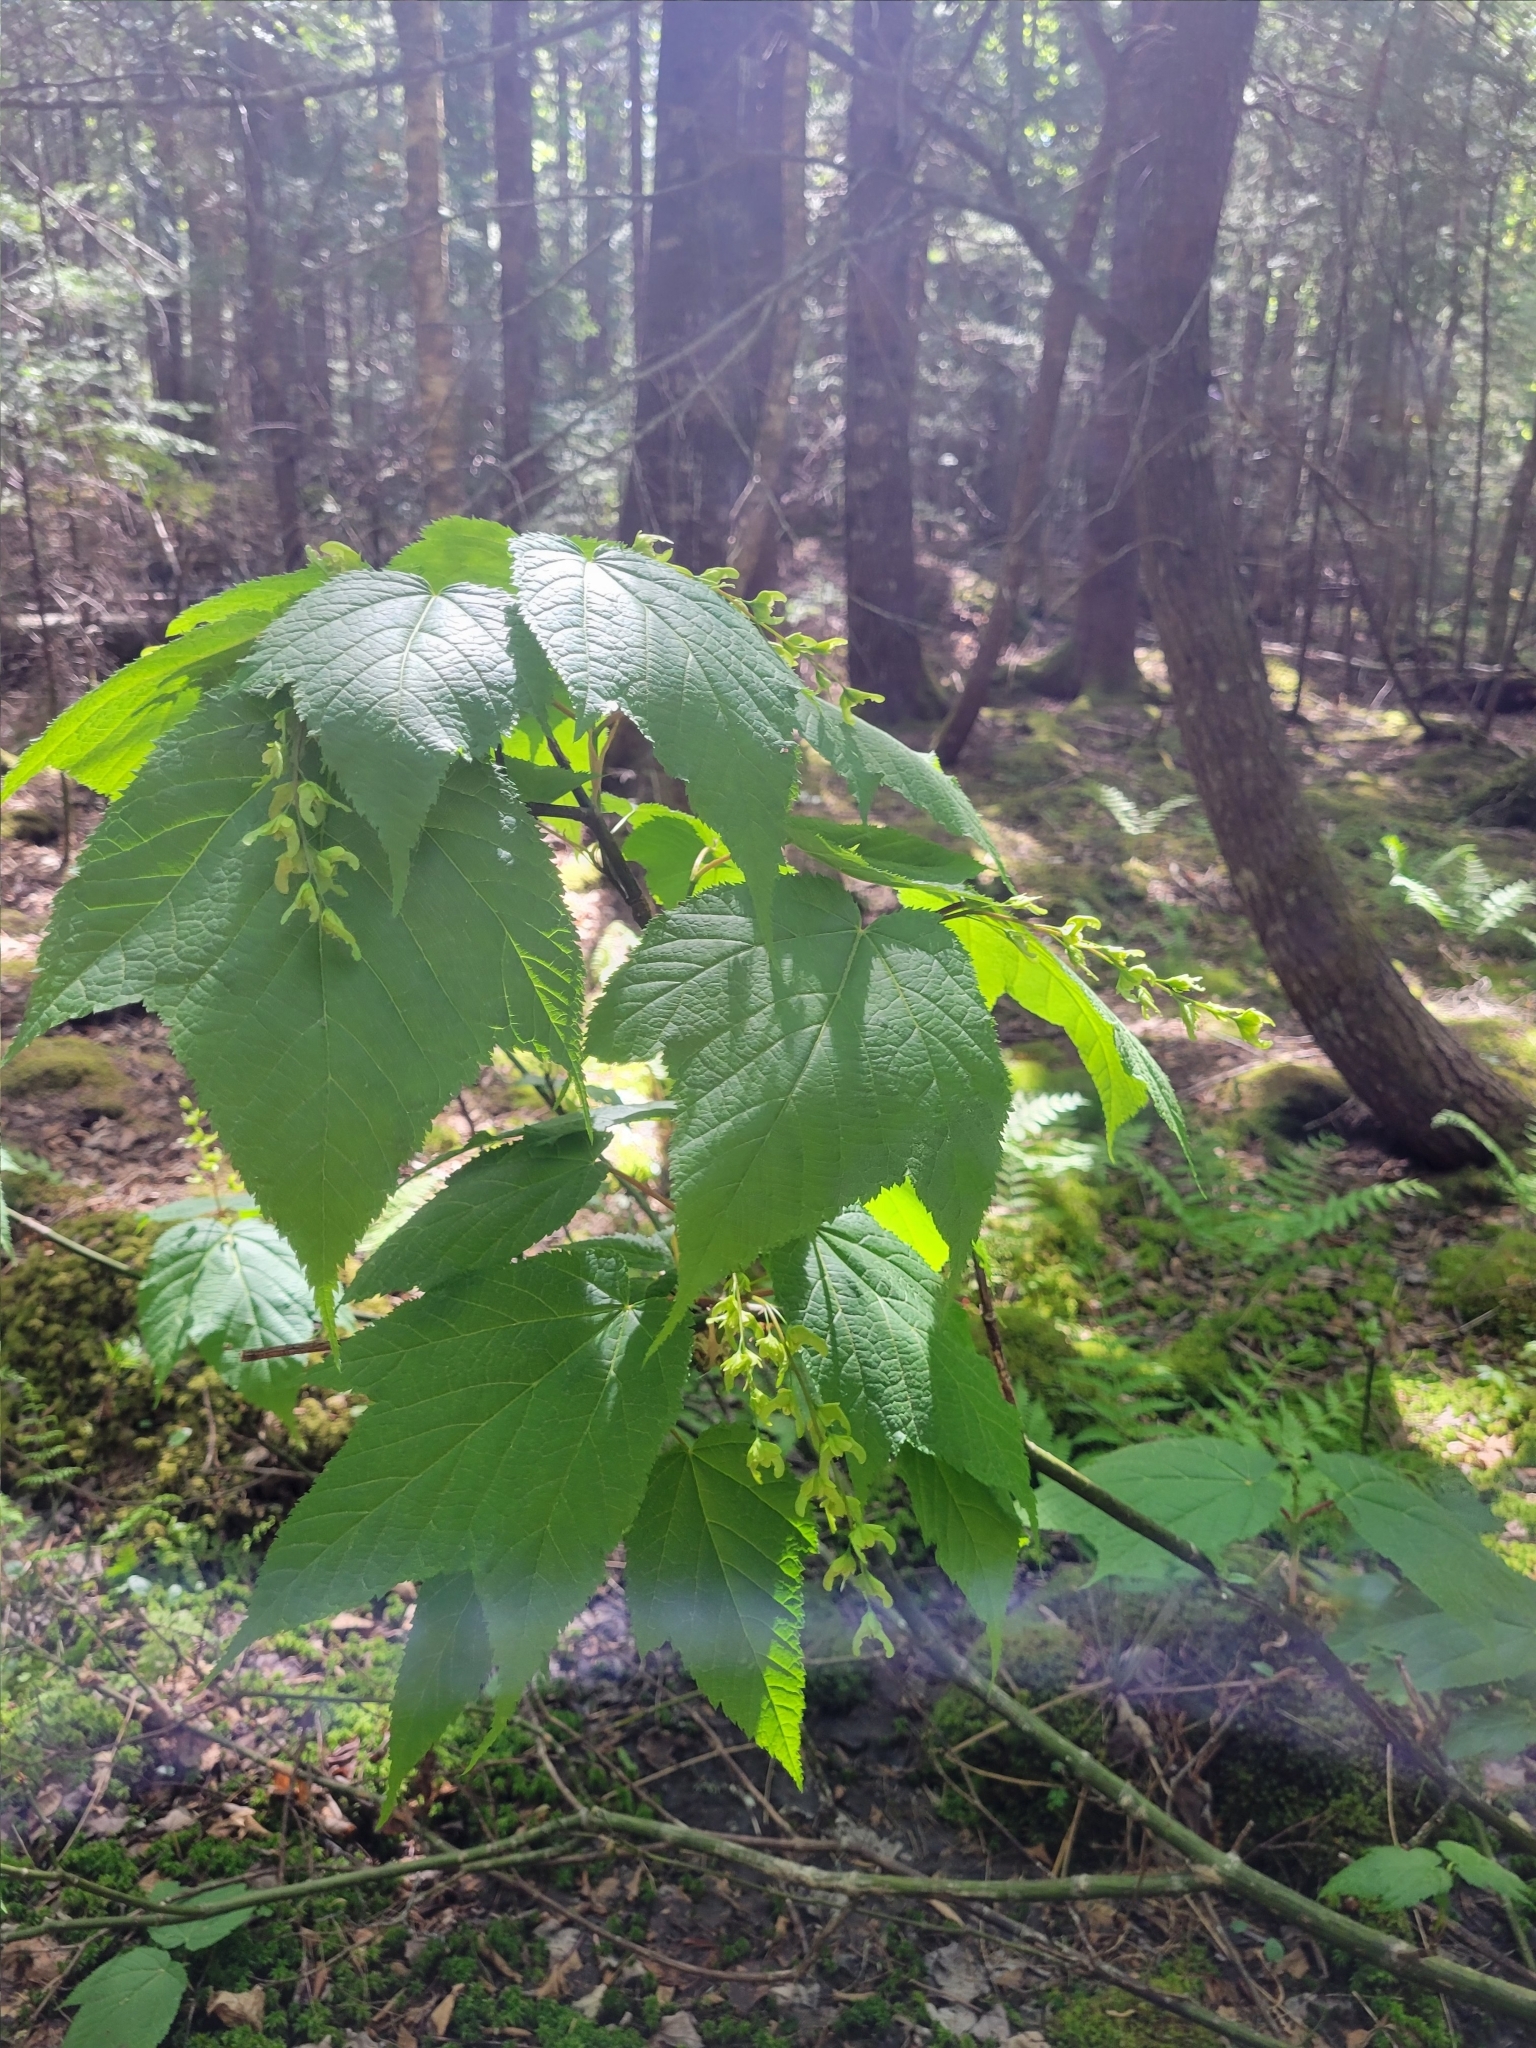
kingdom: Plantae
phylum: Tracheophyta
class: Magnoliopsida
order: Sapindales
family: Sapindaceae
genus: Acer
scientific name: Acer pensylvanicum
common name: Moosewood
